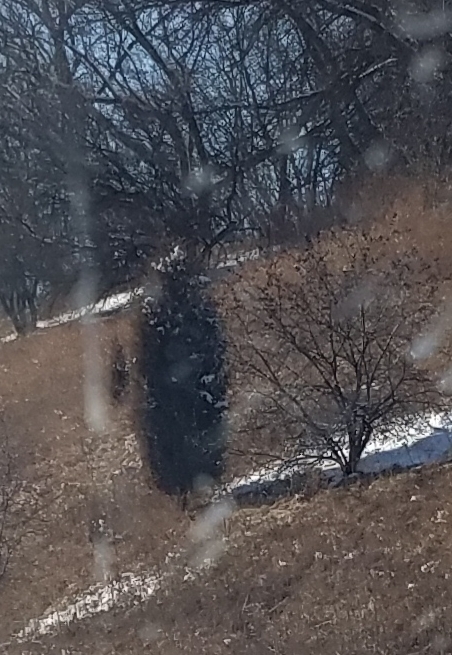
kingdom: Plantae
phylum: Tracheophyta
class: Pinopsida
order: Pinales
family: Cupressaceae
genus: Juniperus
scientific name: Juniperus virginiana
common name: Red juniper
